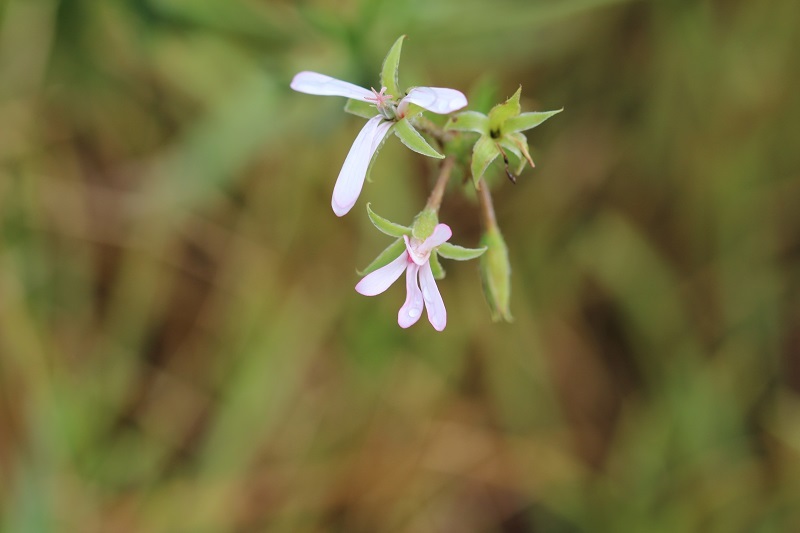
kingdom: Plantae
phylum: Tracheophyta
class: Magnoliopsida
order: Geraniales
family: Geraniaceae
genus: Pelargonium
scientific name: Pelargonium alchemilloides
